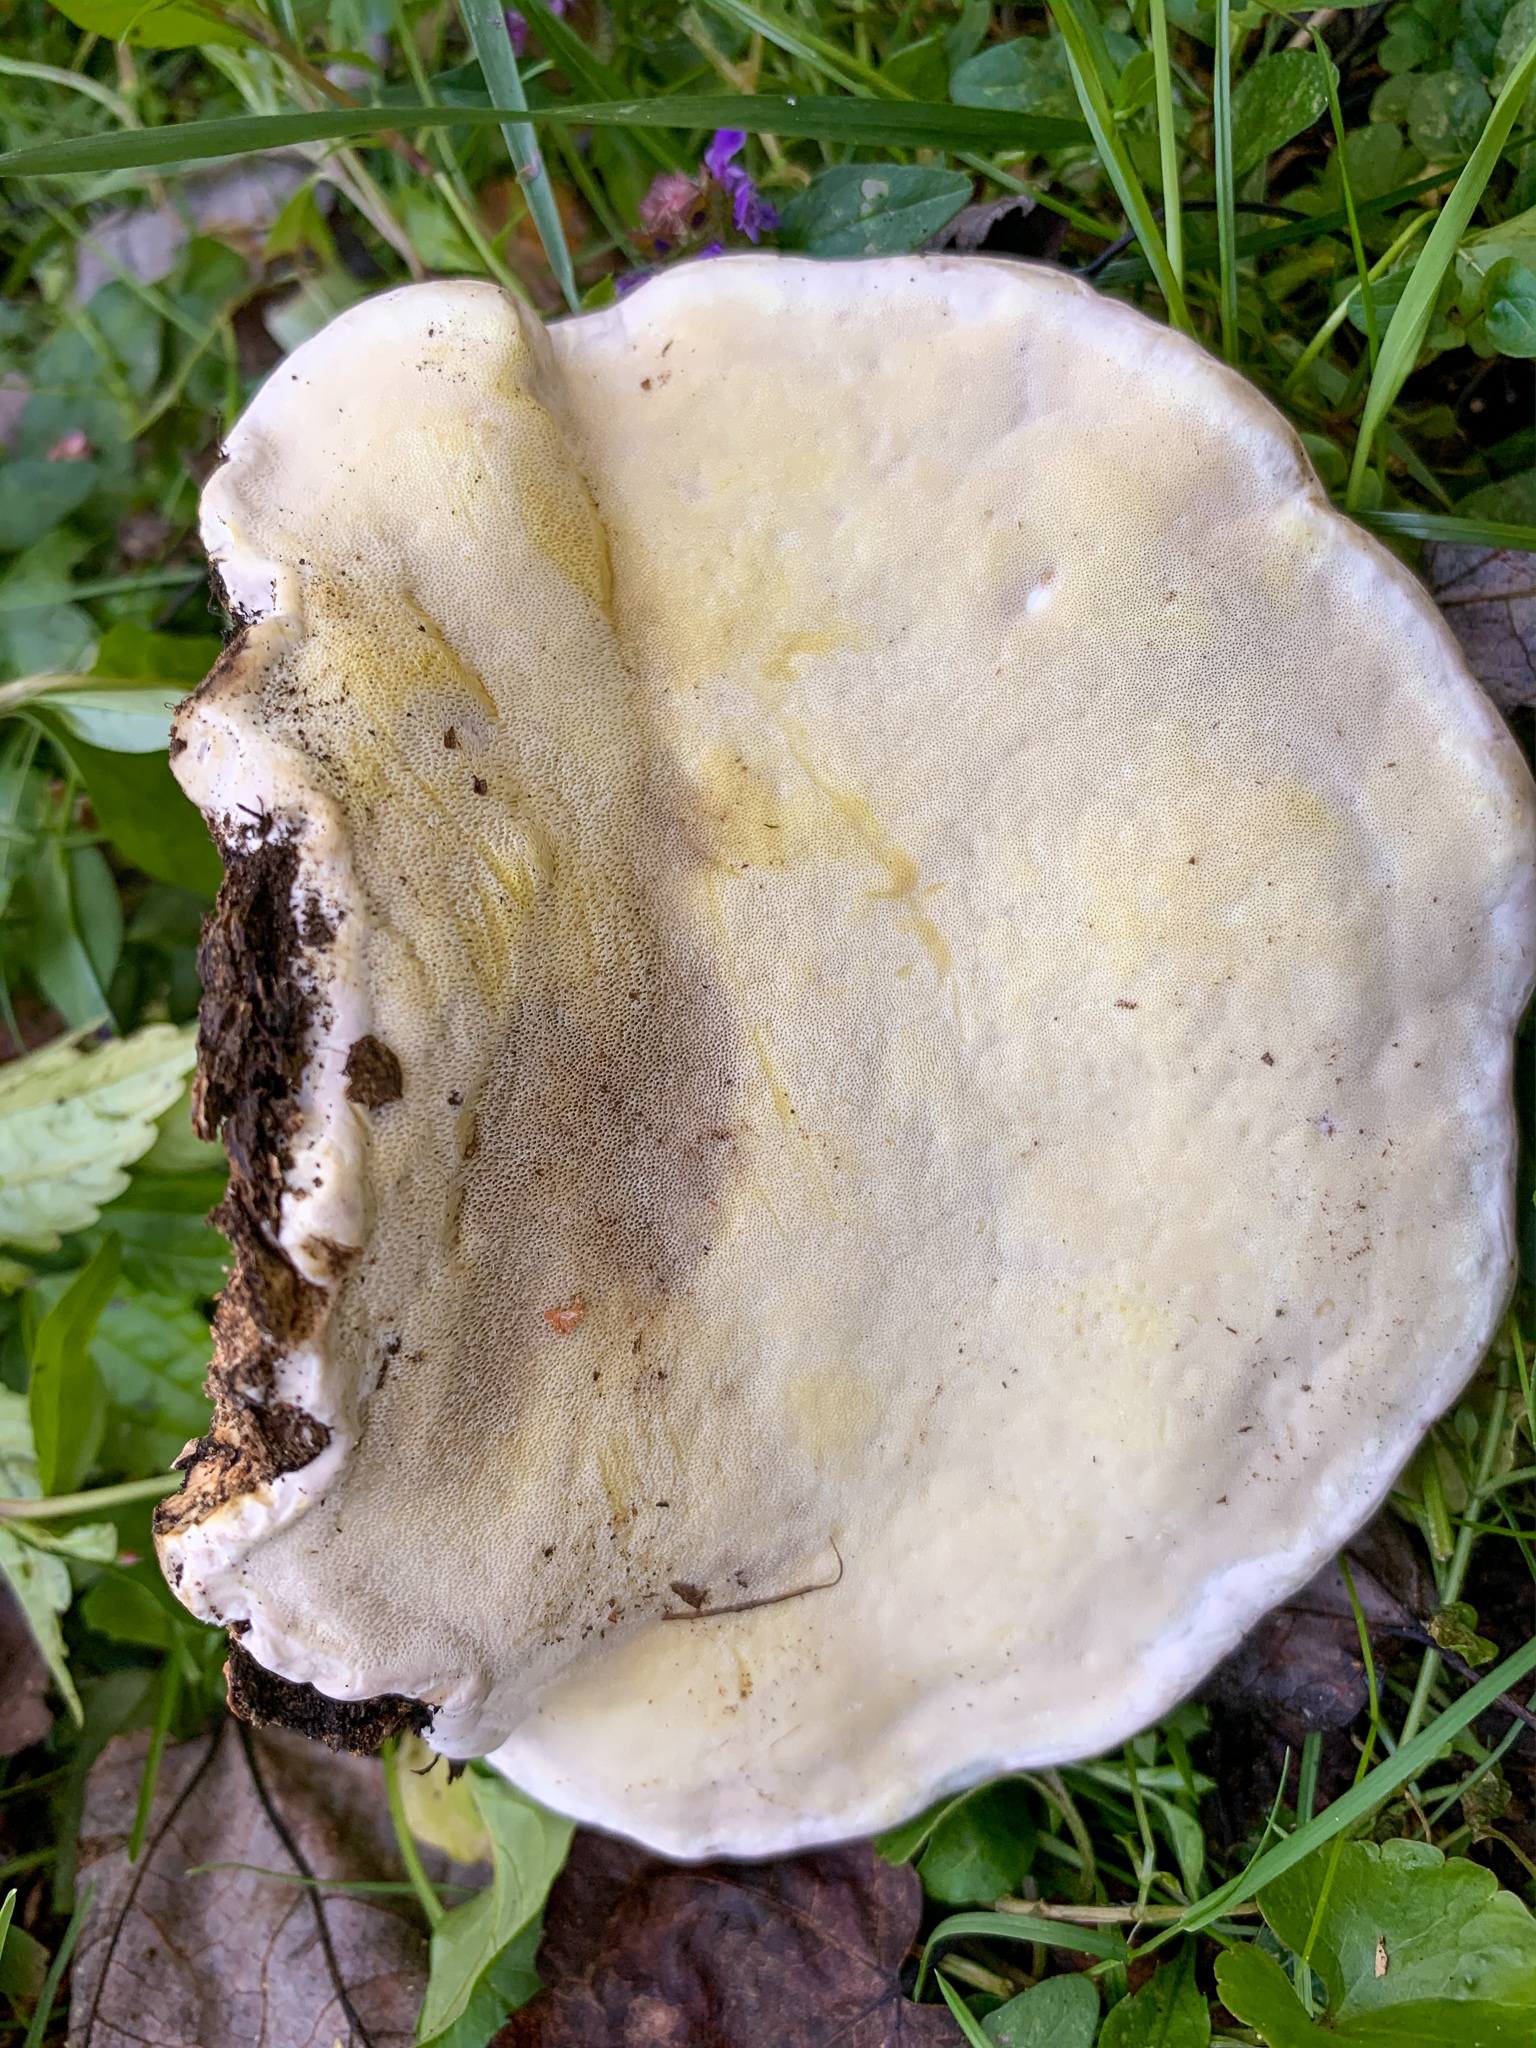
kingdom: Fungi
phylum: Basidiomycota
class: Agaricomycetes
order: Polyporales
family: Fomitopsidaceae
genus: Fomitopsis
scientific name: Fomitopsis ochracea
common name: American brown fomitopsis
